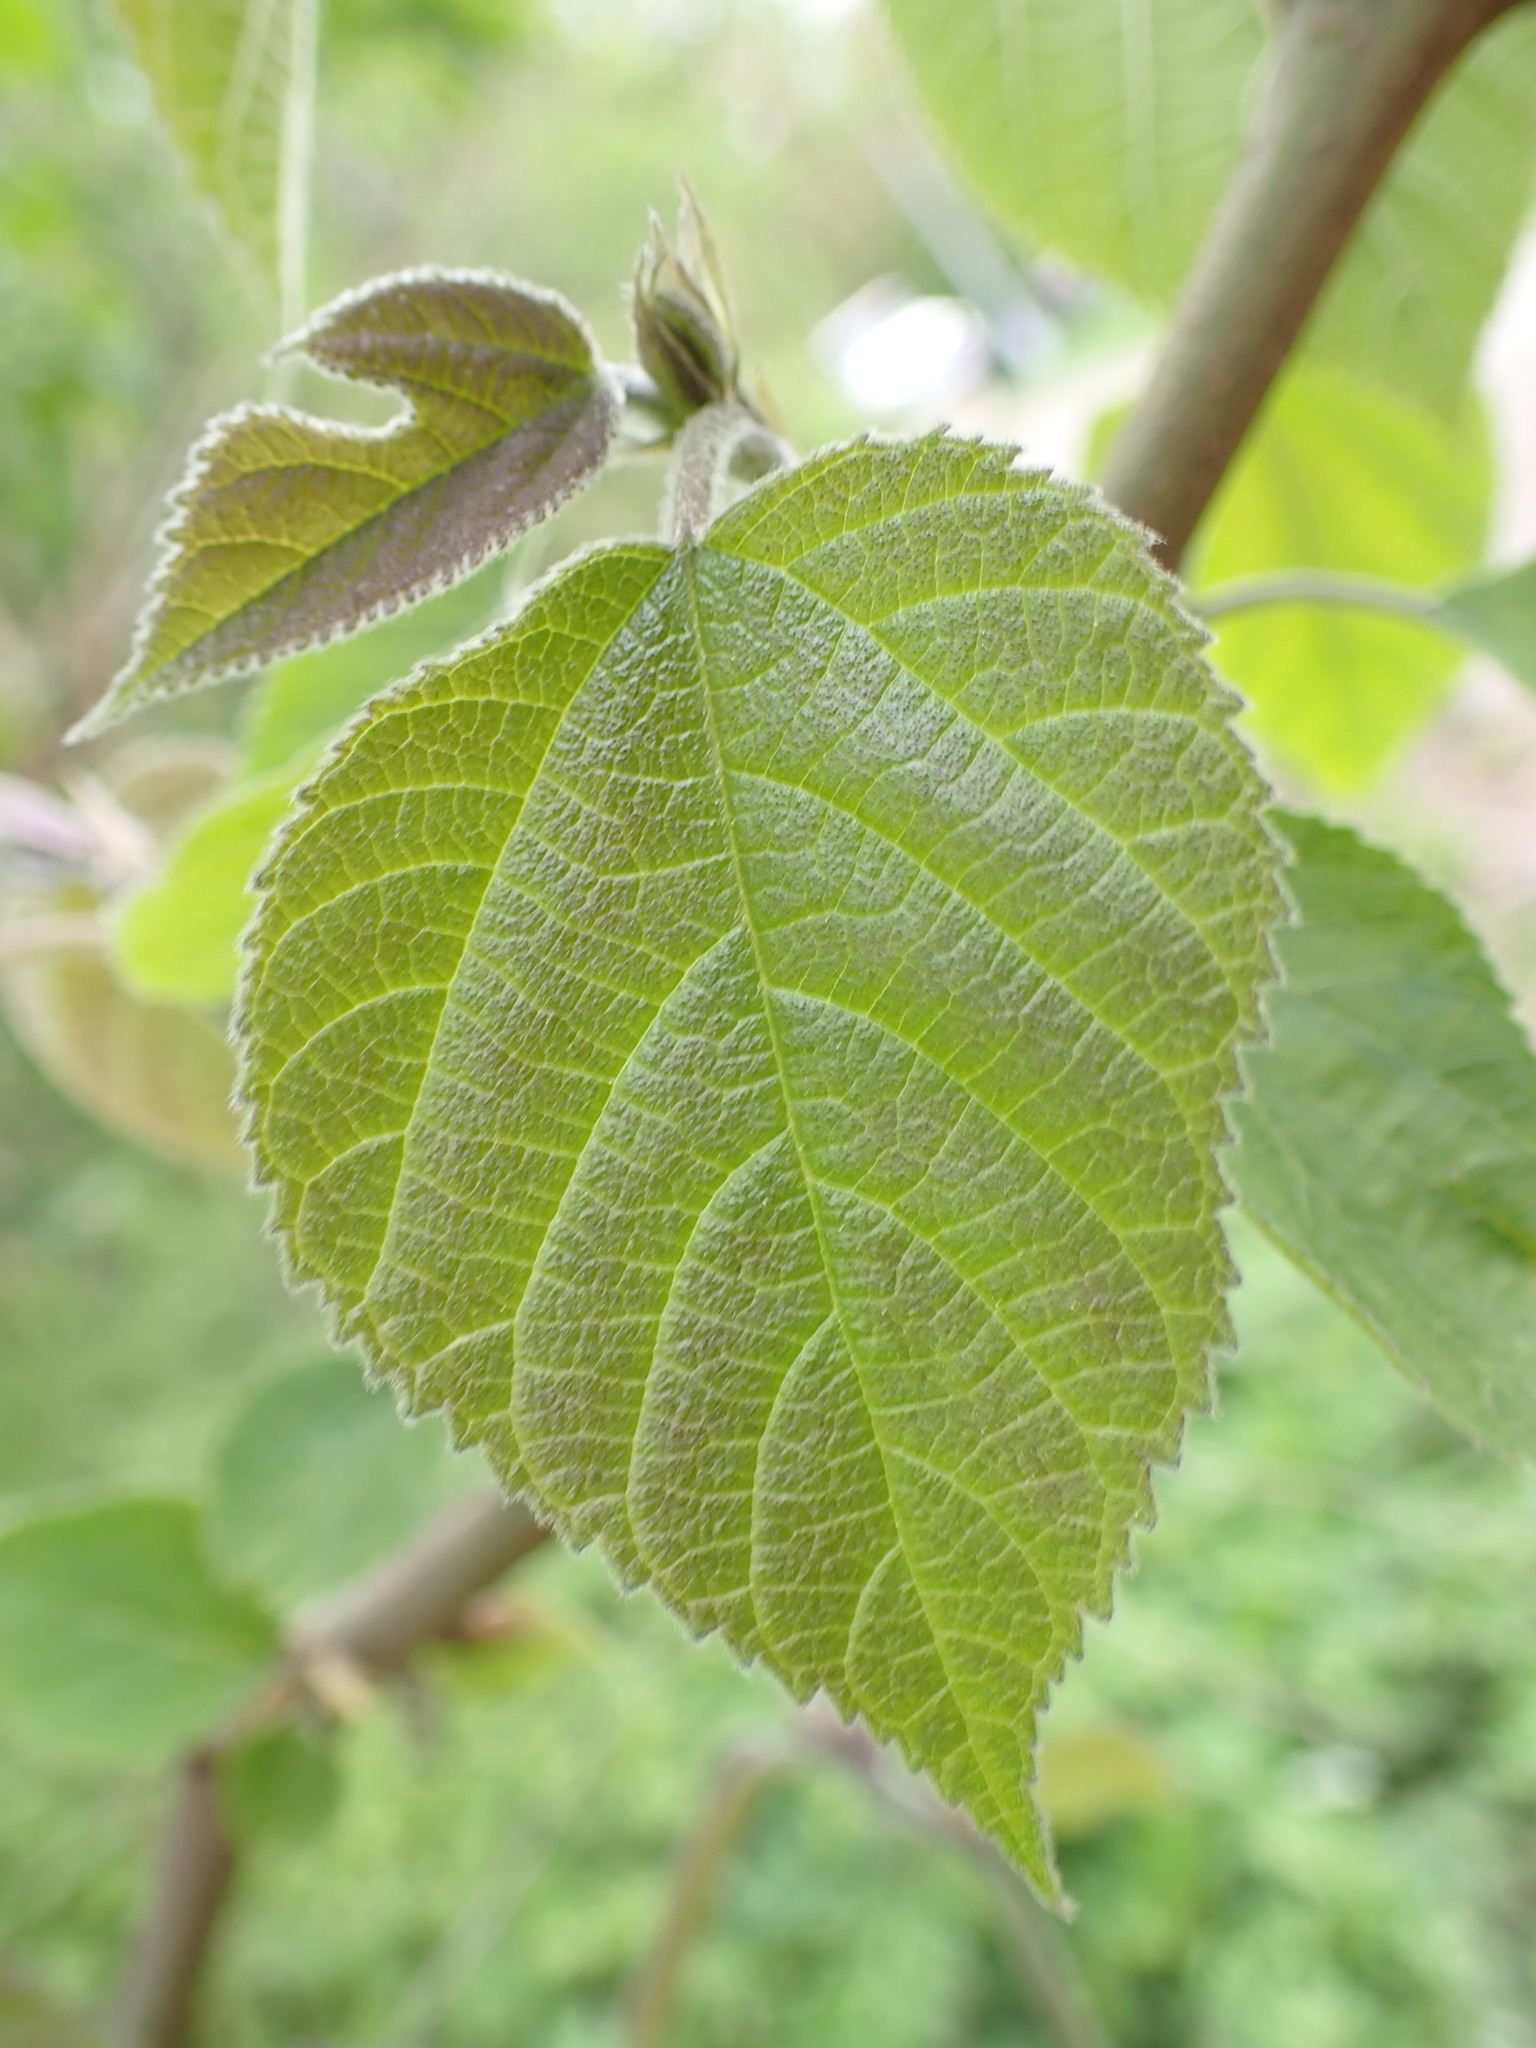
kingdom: Plantae
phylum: Tracheophyta
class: Magnoliopsida
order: Rosales
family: Moraceae
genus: Broussonetia
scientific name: Broussonetia papyrifera
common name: Paper mulberry
